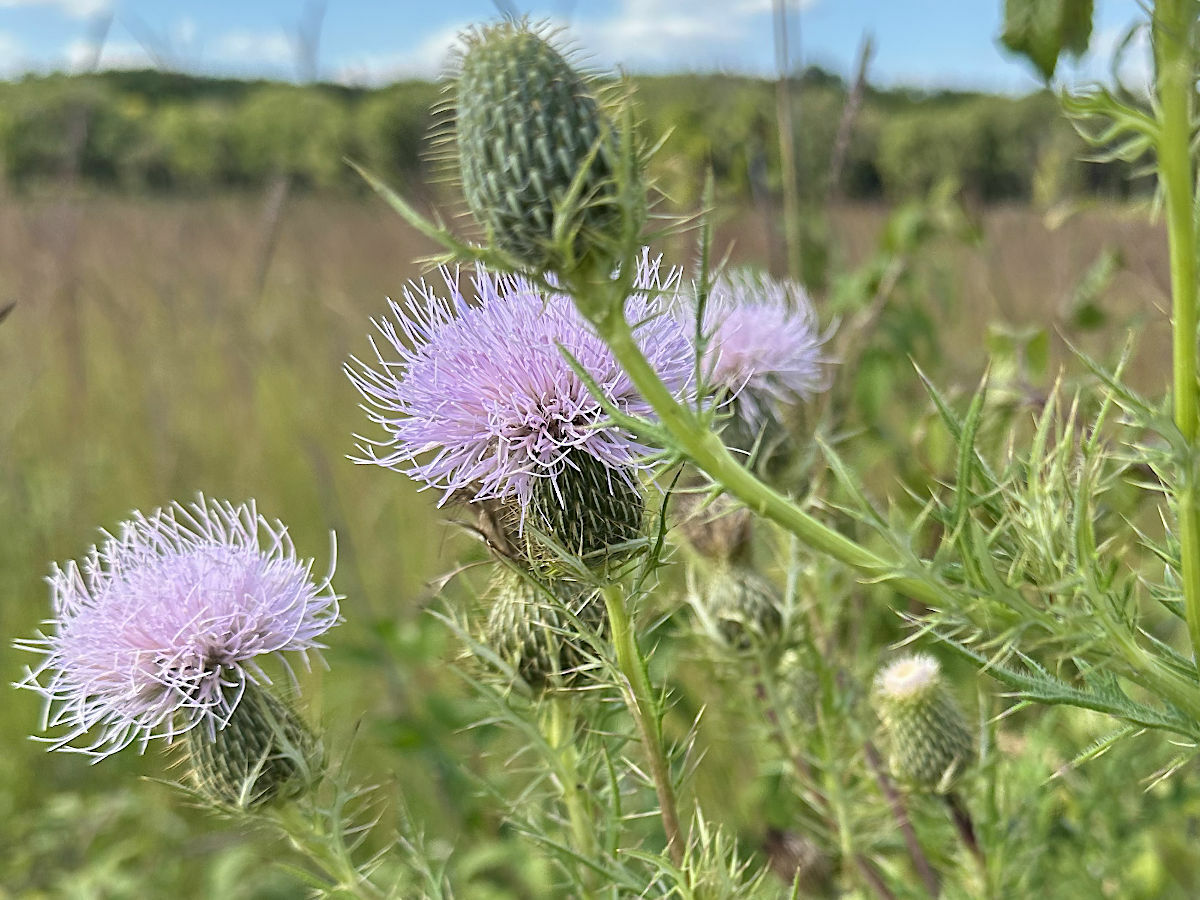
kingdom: Plantae
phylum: Tracheophyta
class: Magnoliopsida
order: Asterales
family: Asteraceae
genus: Cirsium
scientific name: Cirsium discolor
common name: Field thistle
